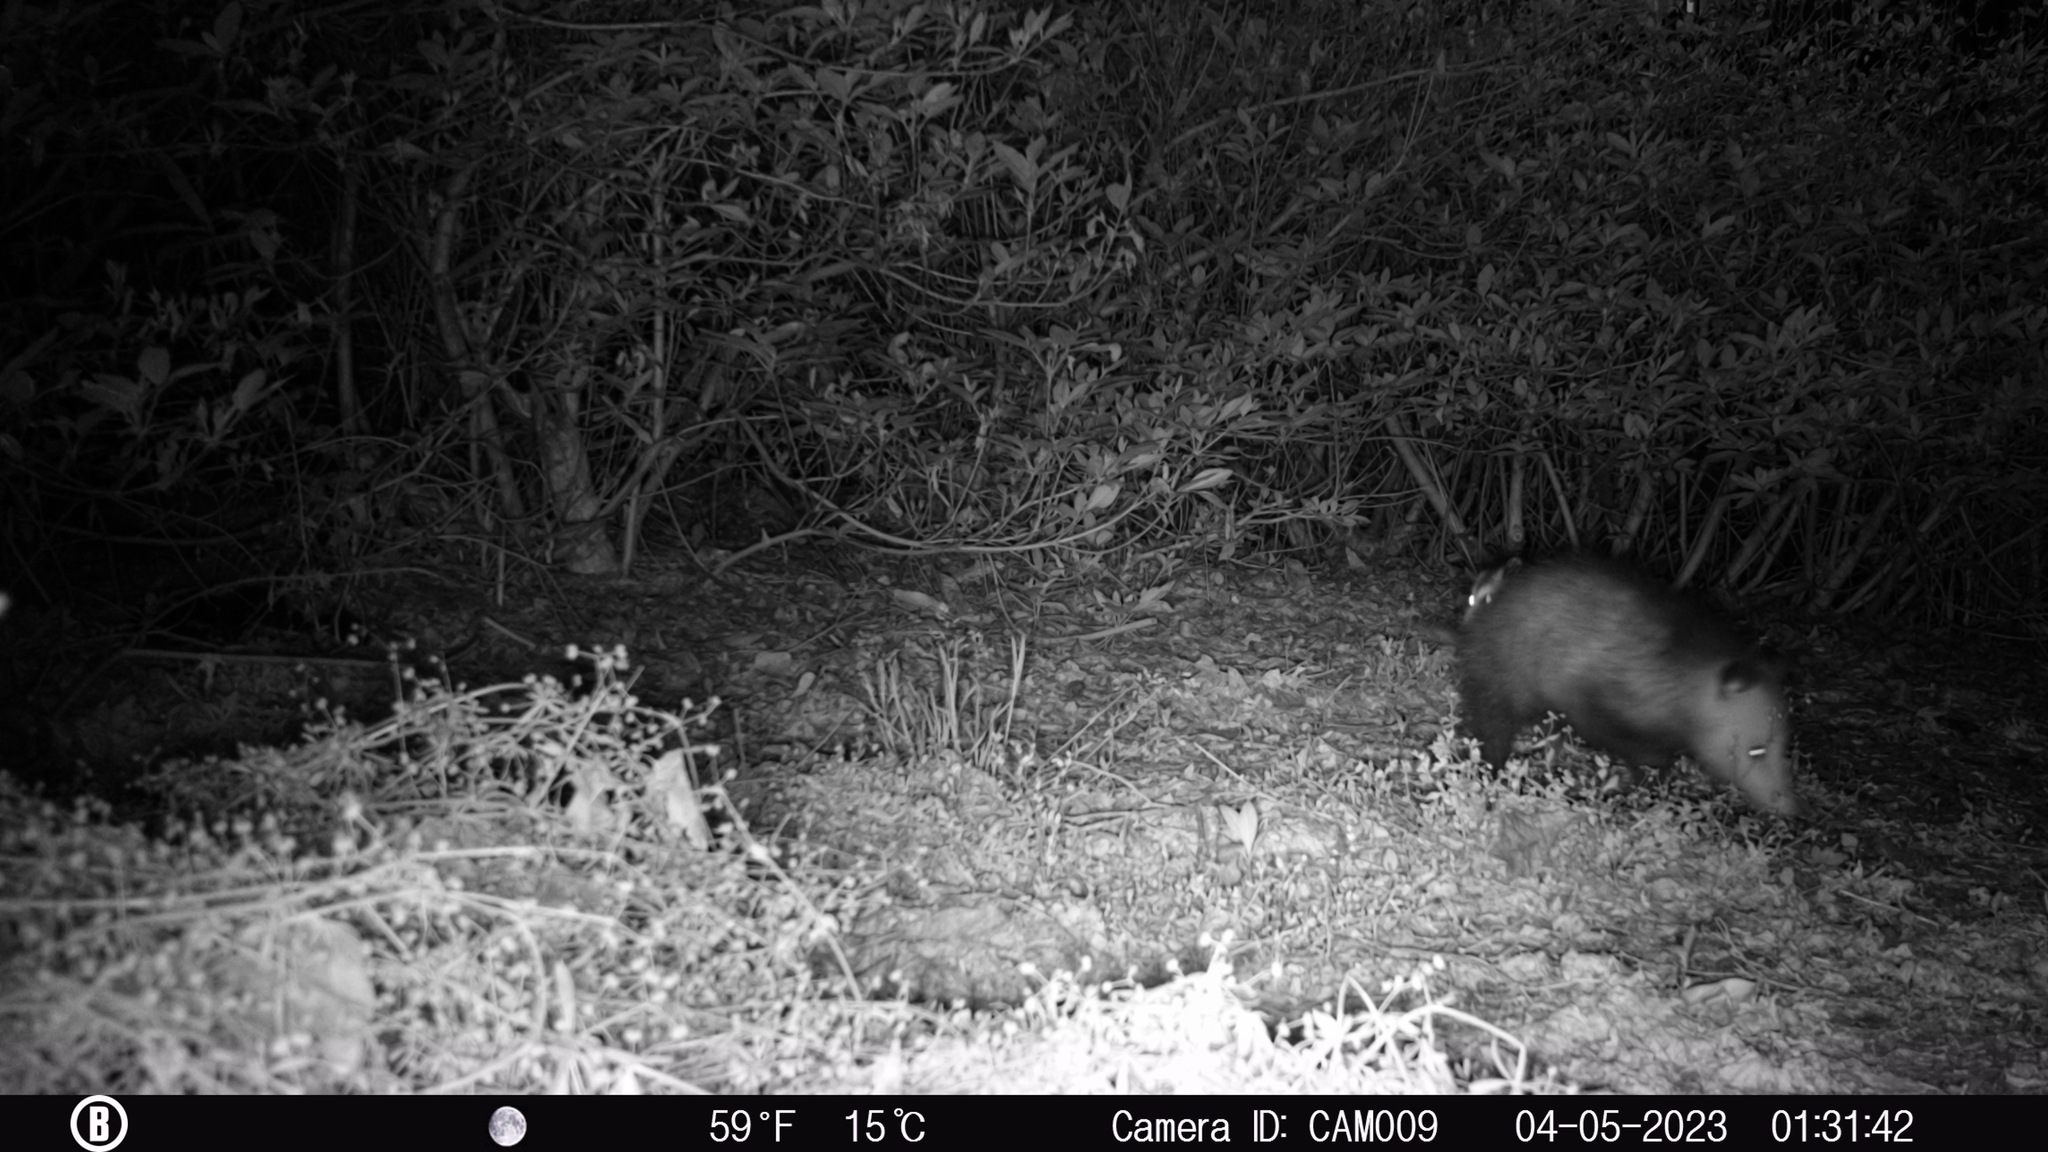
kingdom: Animalia
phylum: Chordata
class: Mammalia
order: Didelphimorphia
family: Didelphidae
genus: Didelphis
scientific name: Didelphis virginiana
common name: Virginia opossum
